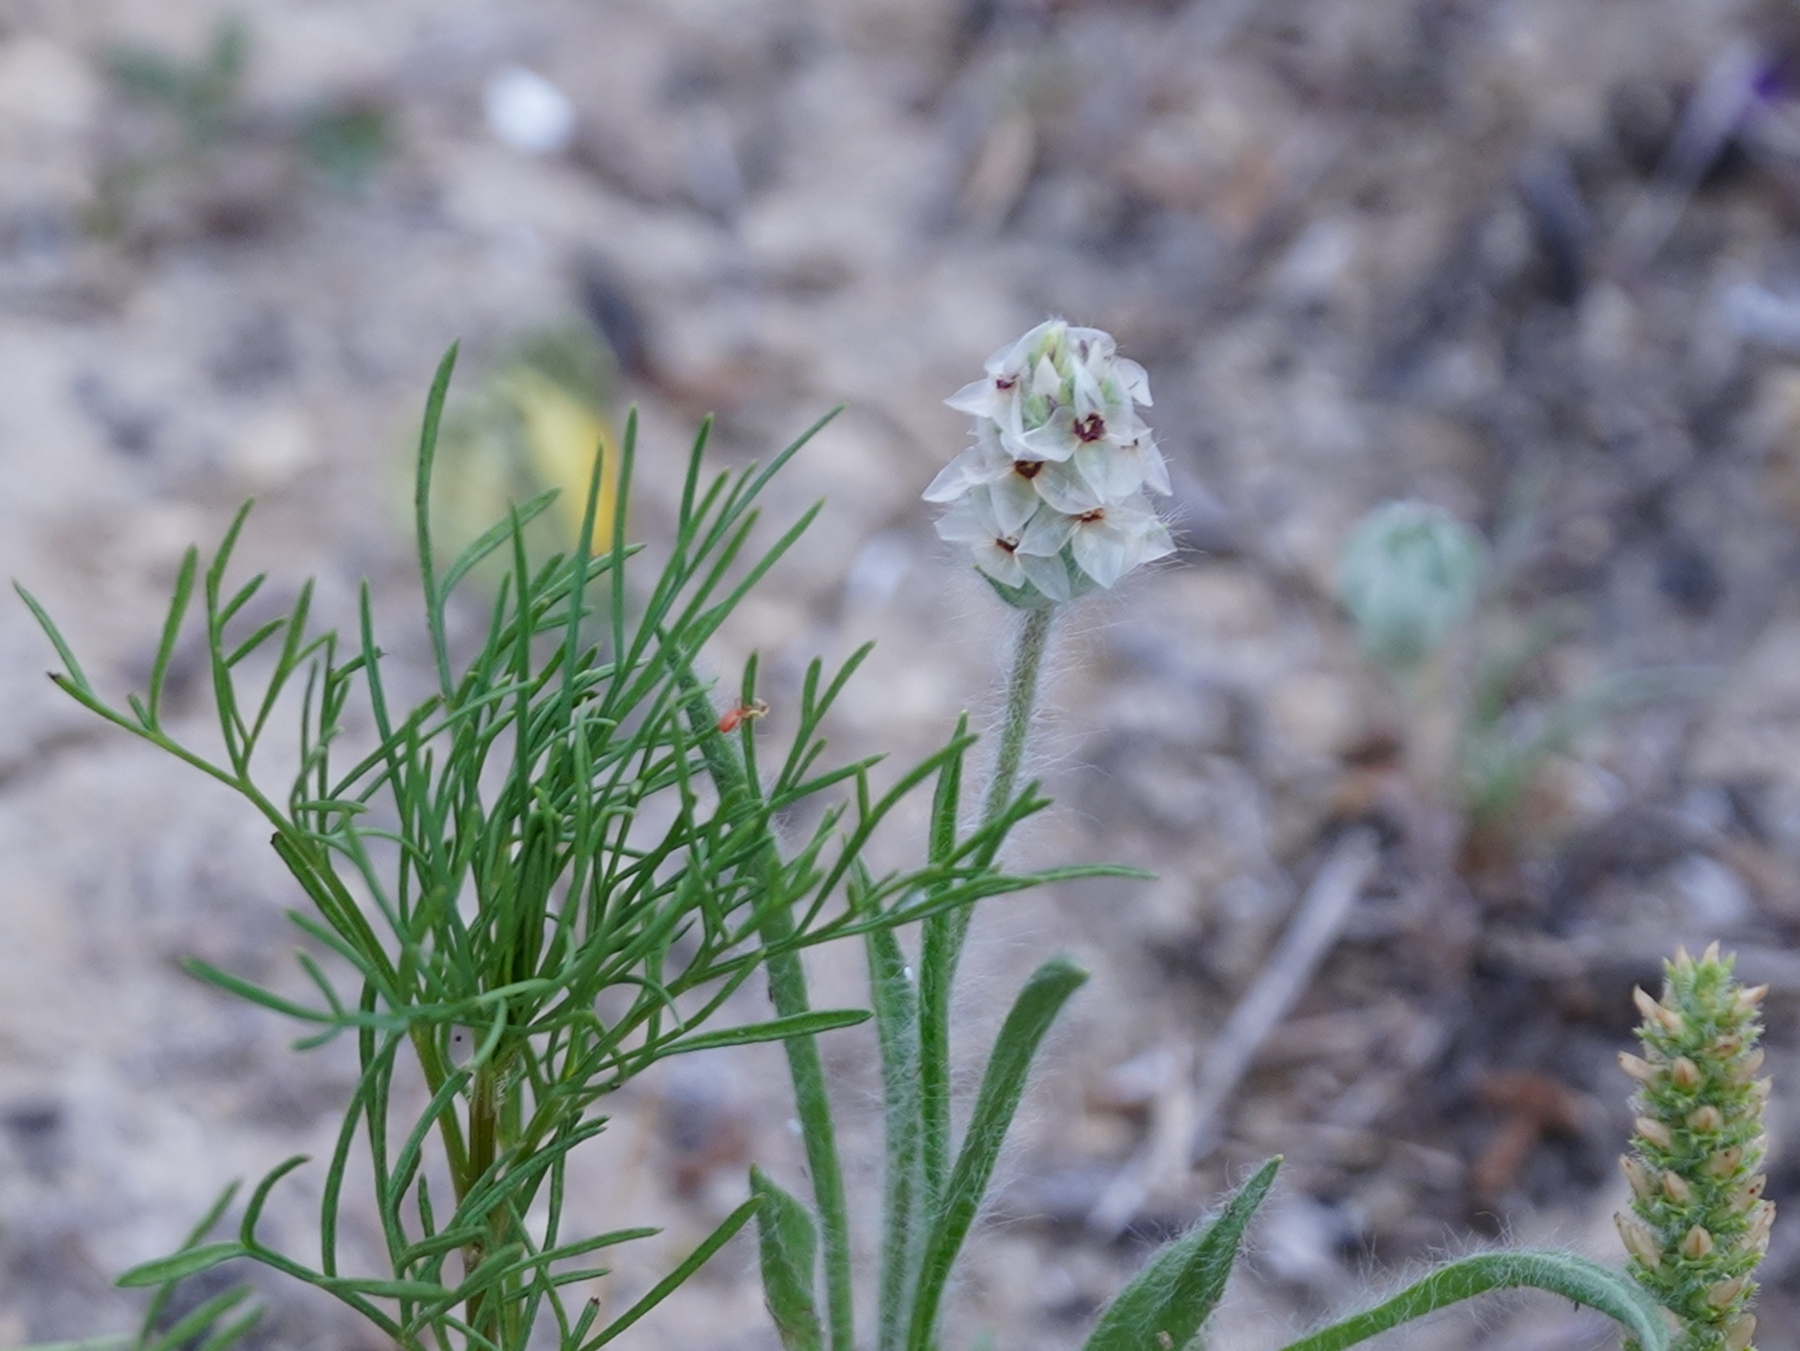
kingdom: Plantae
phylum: Tracheophyta
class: Magnoliopsida
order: Lamiales
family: Plantaginaceae
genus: Plantago
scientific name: Plantago helleri
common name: Heller's plantain
